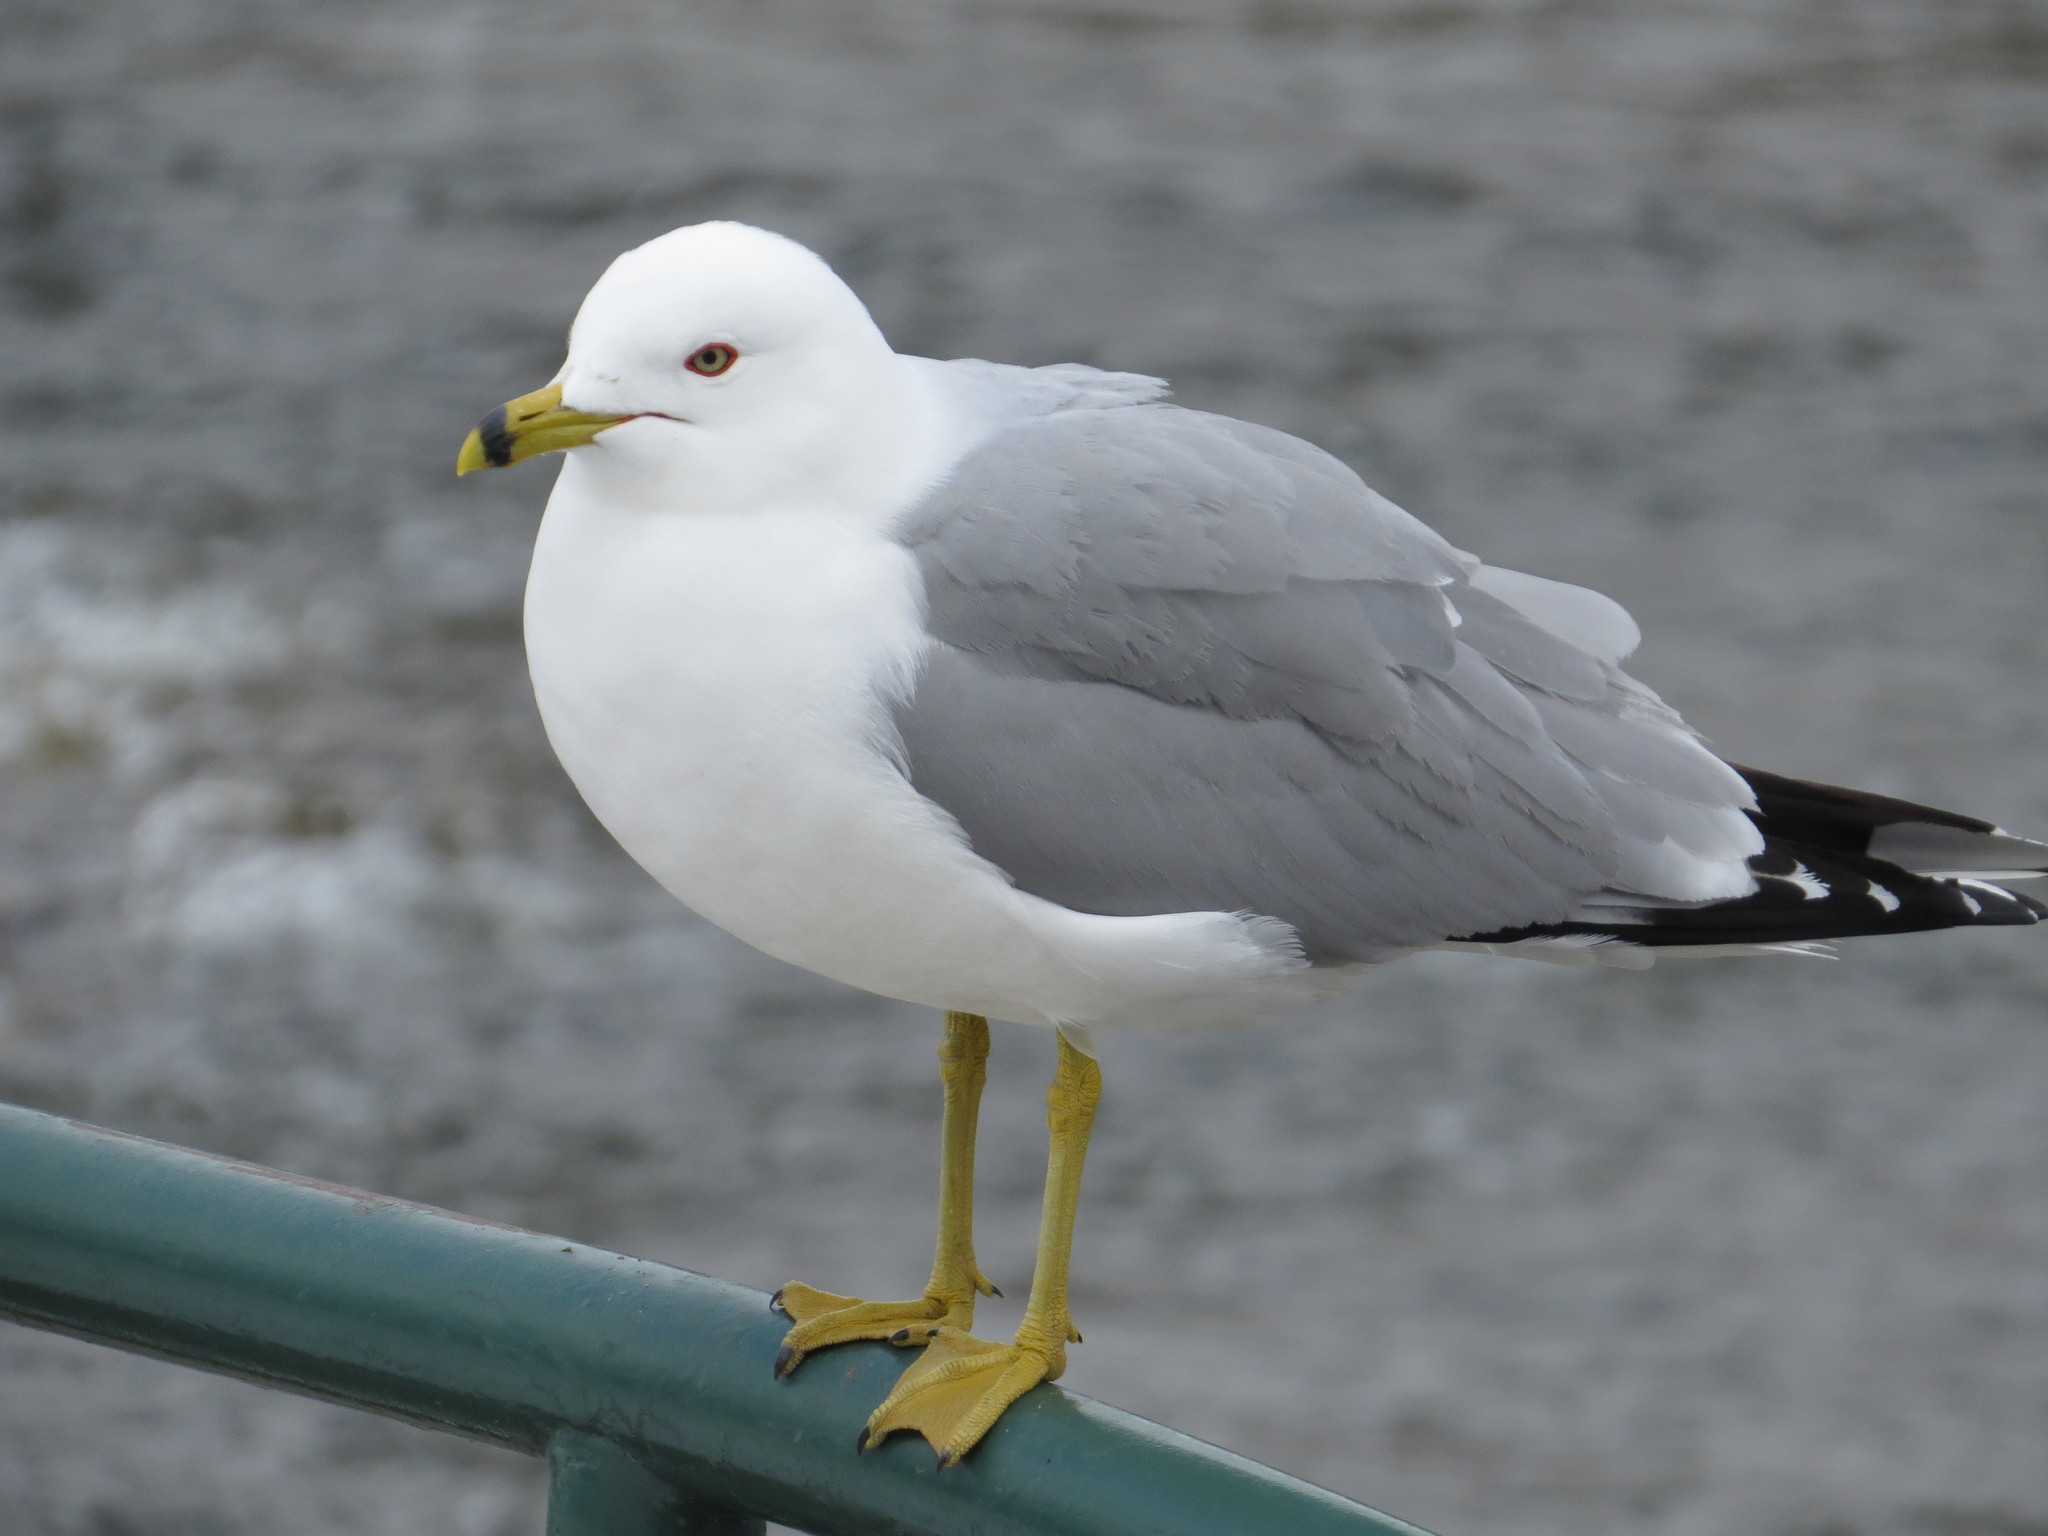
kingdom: Animalia
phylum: Chordata
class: Aves
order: Charadriiformes
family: Laridae
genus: Larus
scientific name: Larus delawarensis
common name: Ring-billed gull
